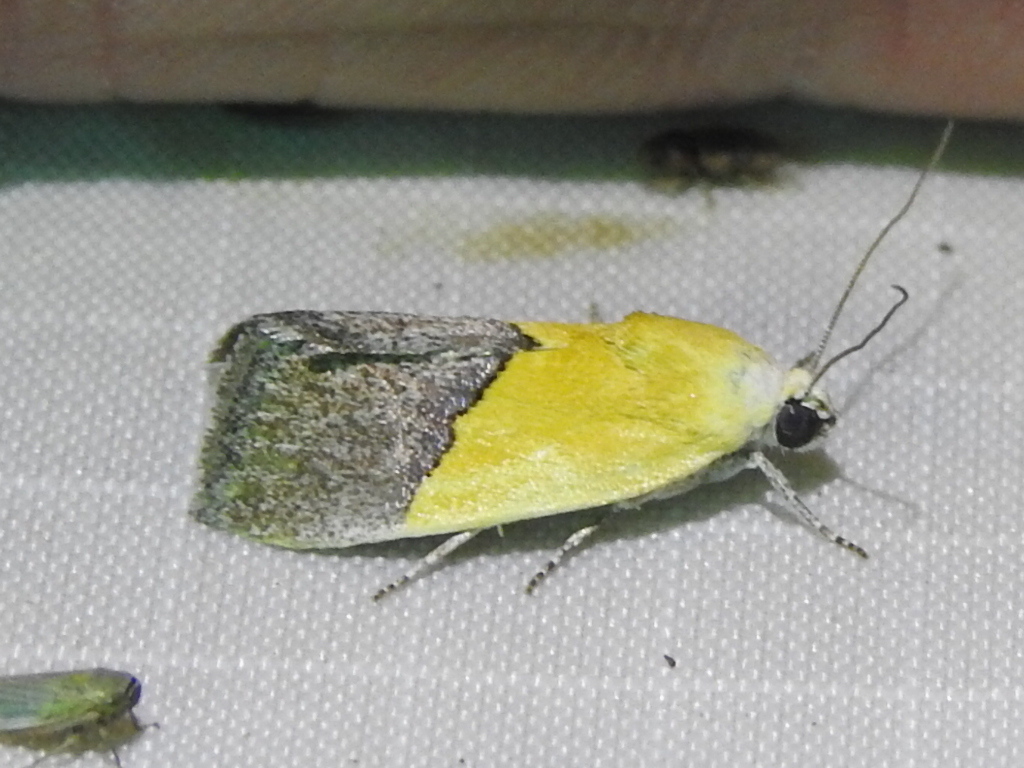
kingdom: Animalia
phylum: Arthropoda
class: Insecta
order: Lepidoptera
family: Noctuidae
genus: Acontia
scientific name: Acontia semiflava
